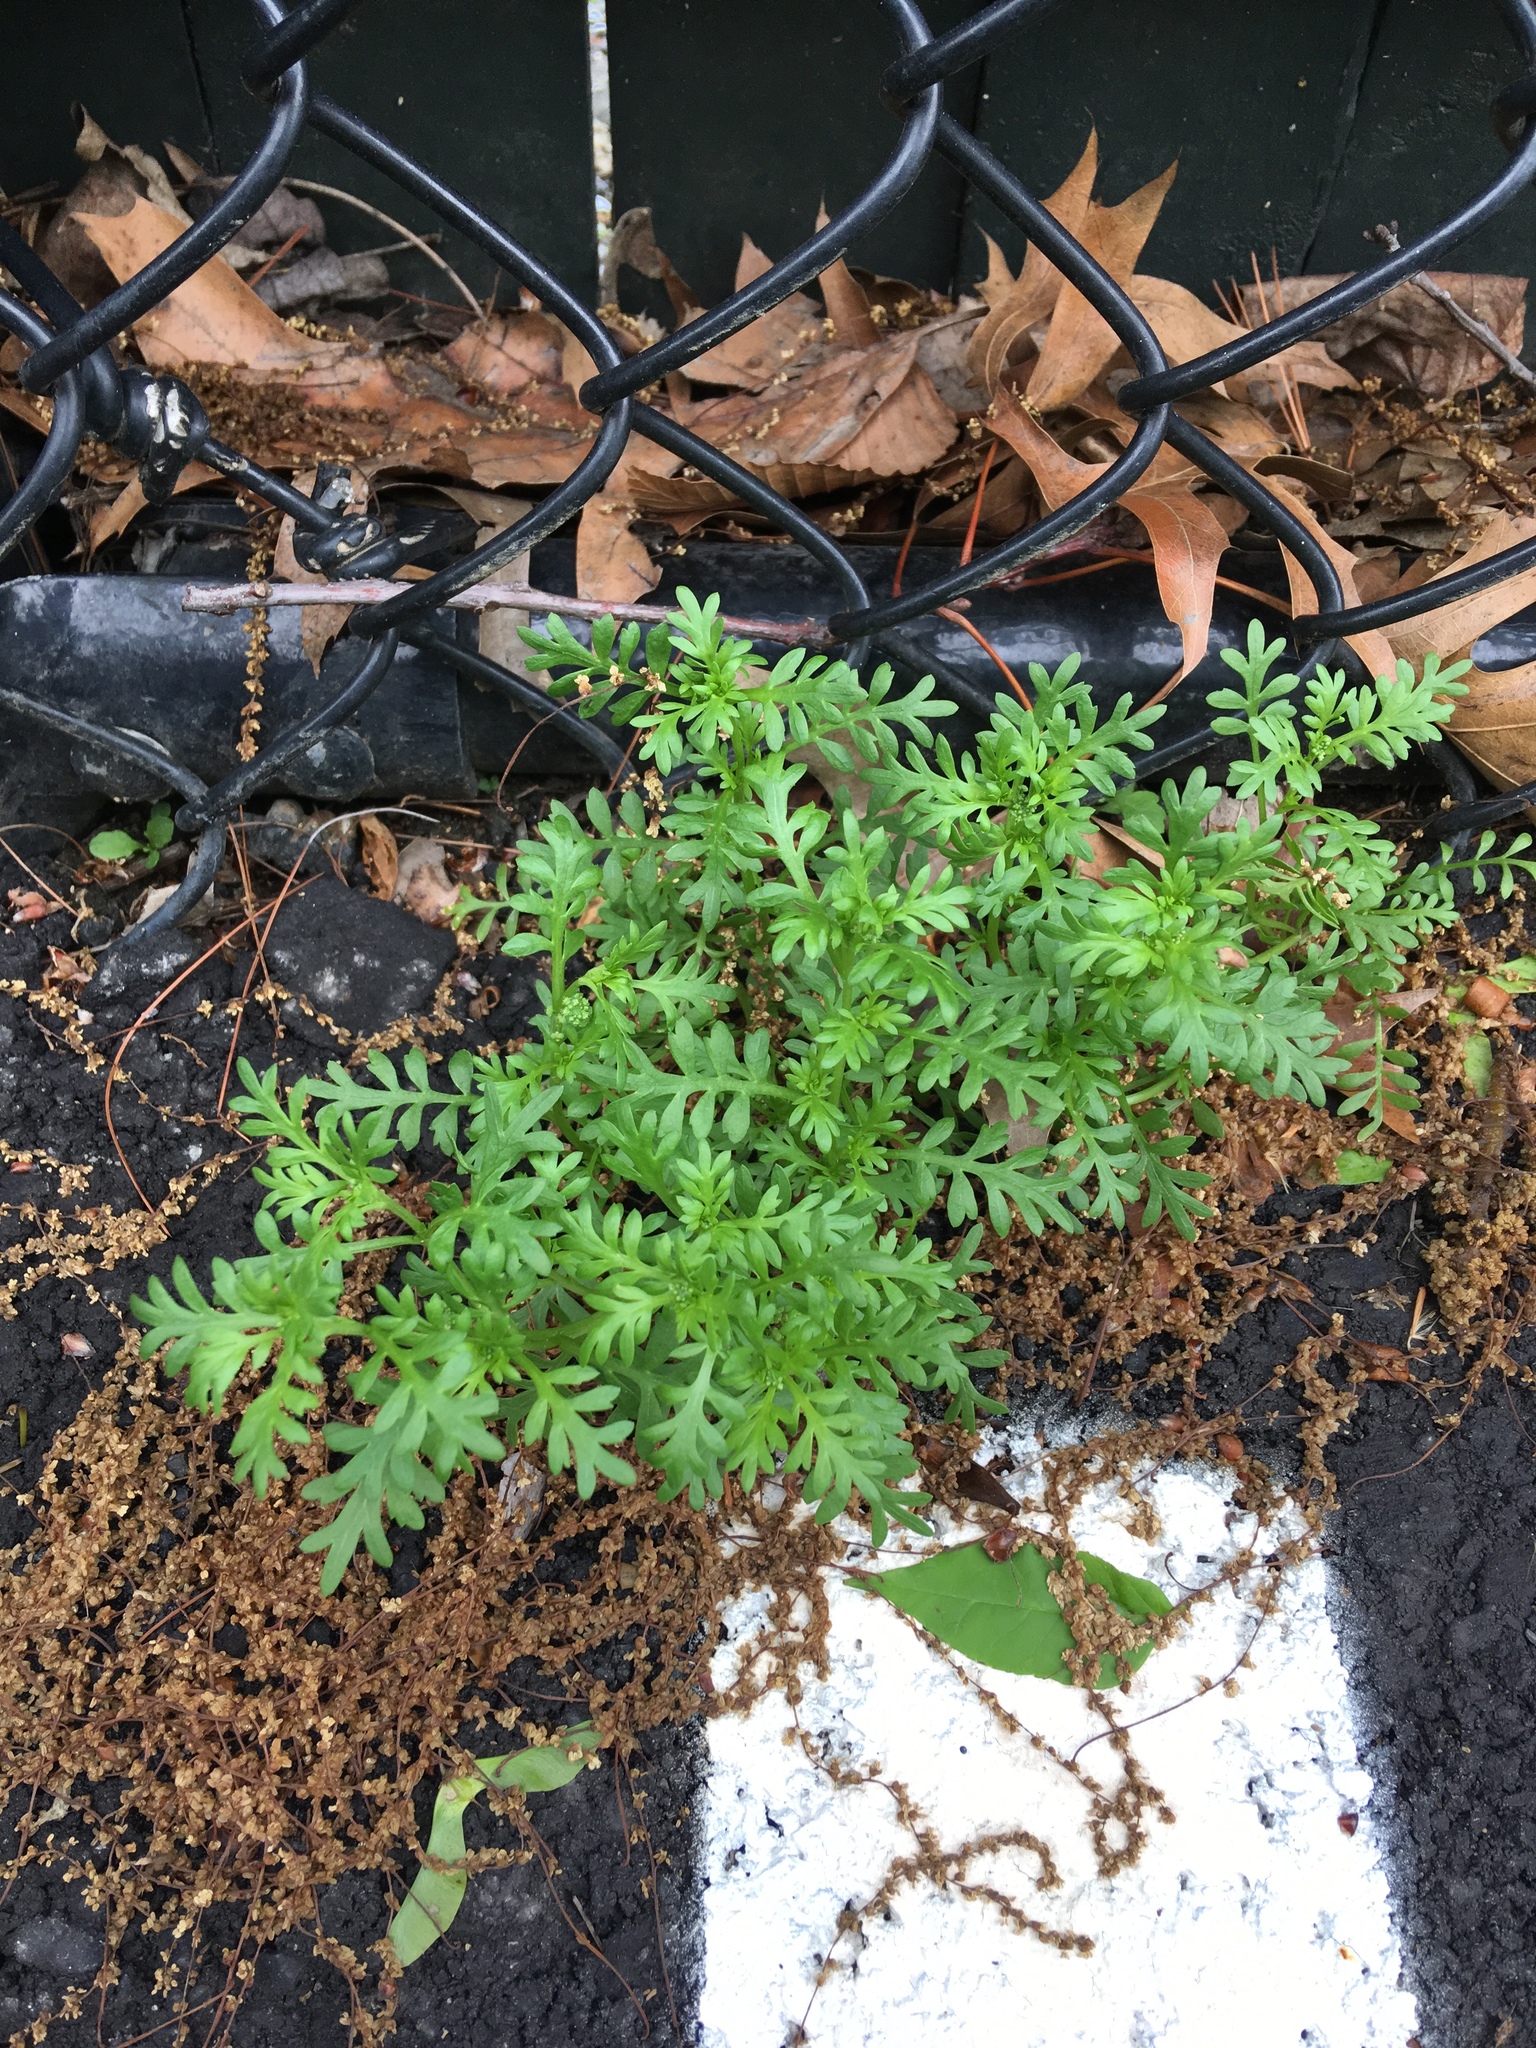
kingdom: Plantae
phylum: Tracheophyta
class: Magnoliopsida
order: Brassicales
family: Brassicaceae
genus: Lepidium
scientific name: Lepidium didymum
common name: Lesser swinecress
